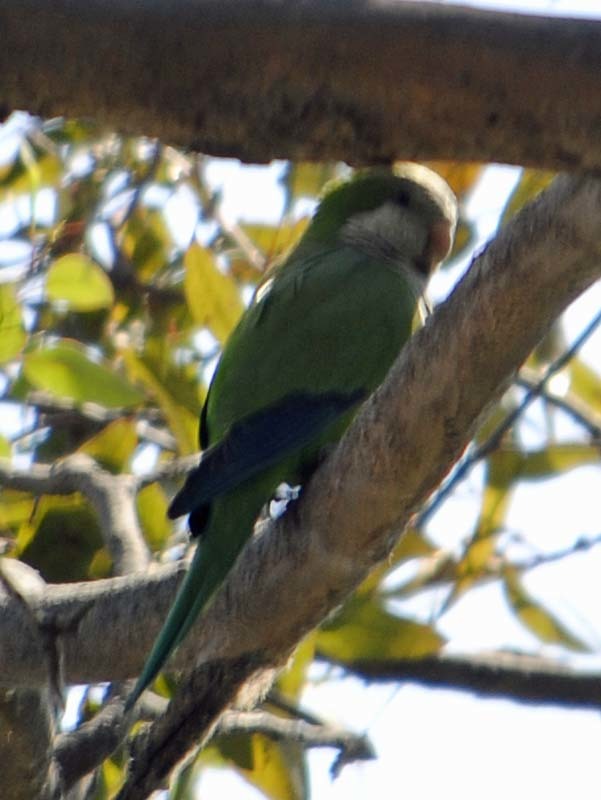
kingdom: Animalia
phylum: Chordata
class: Aves
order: Psittaciformes
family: Psittacidae
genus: Myiopsitta
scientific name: Myiopsitta monachus
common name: Monk parakeet
